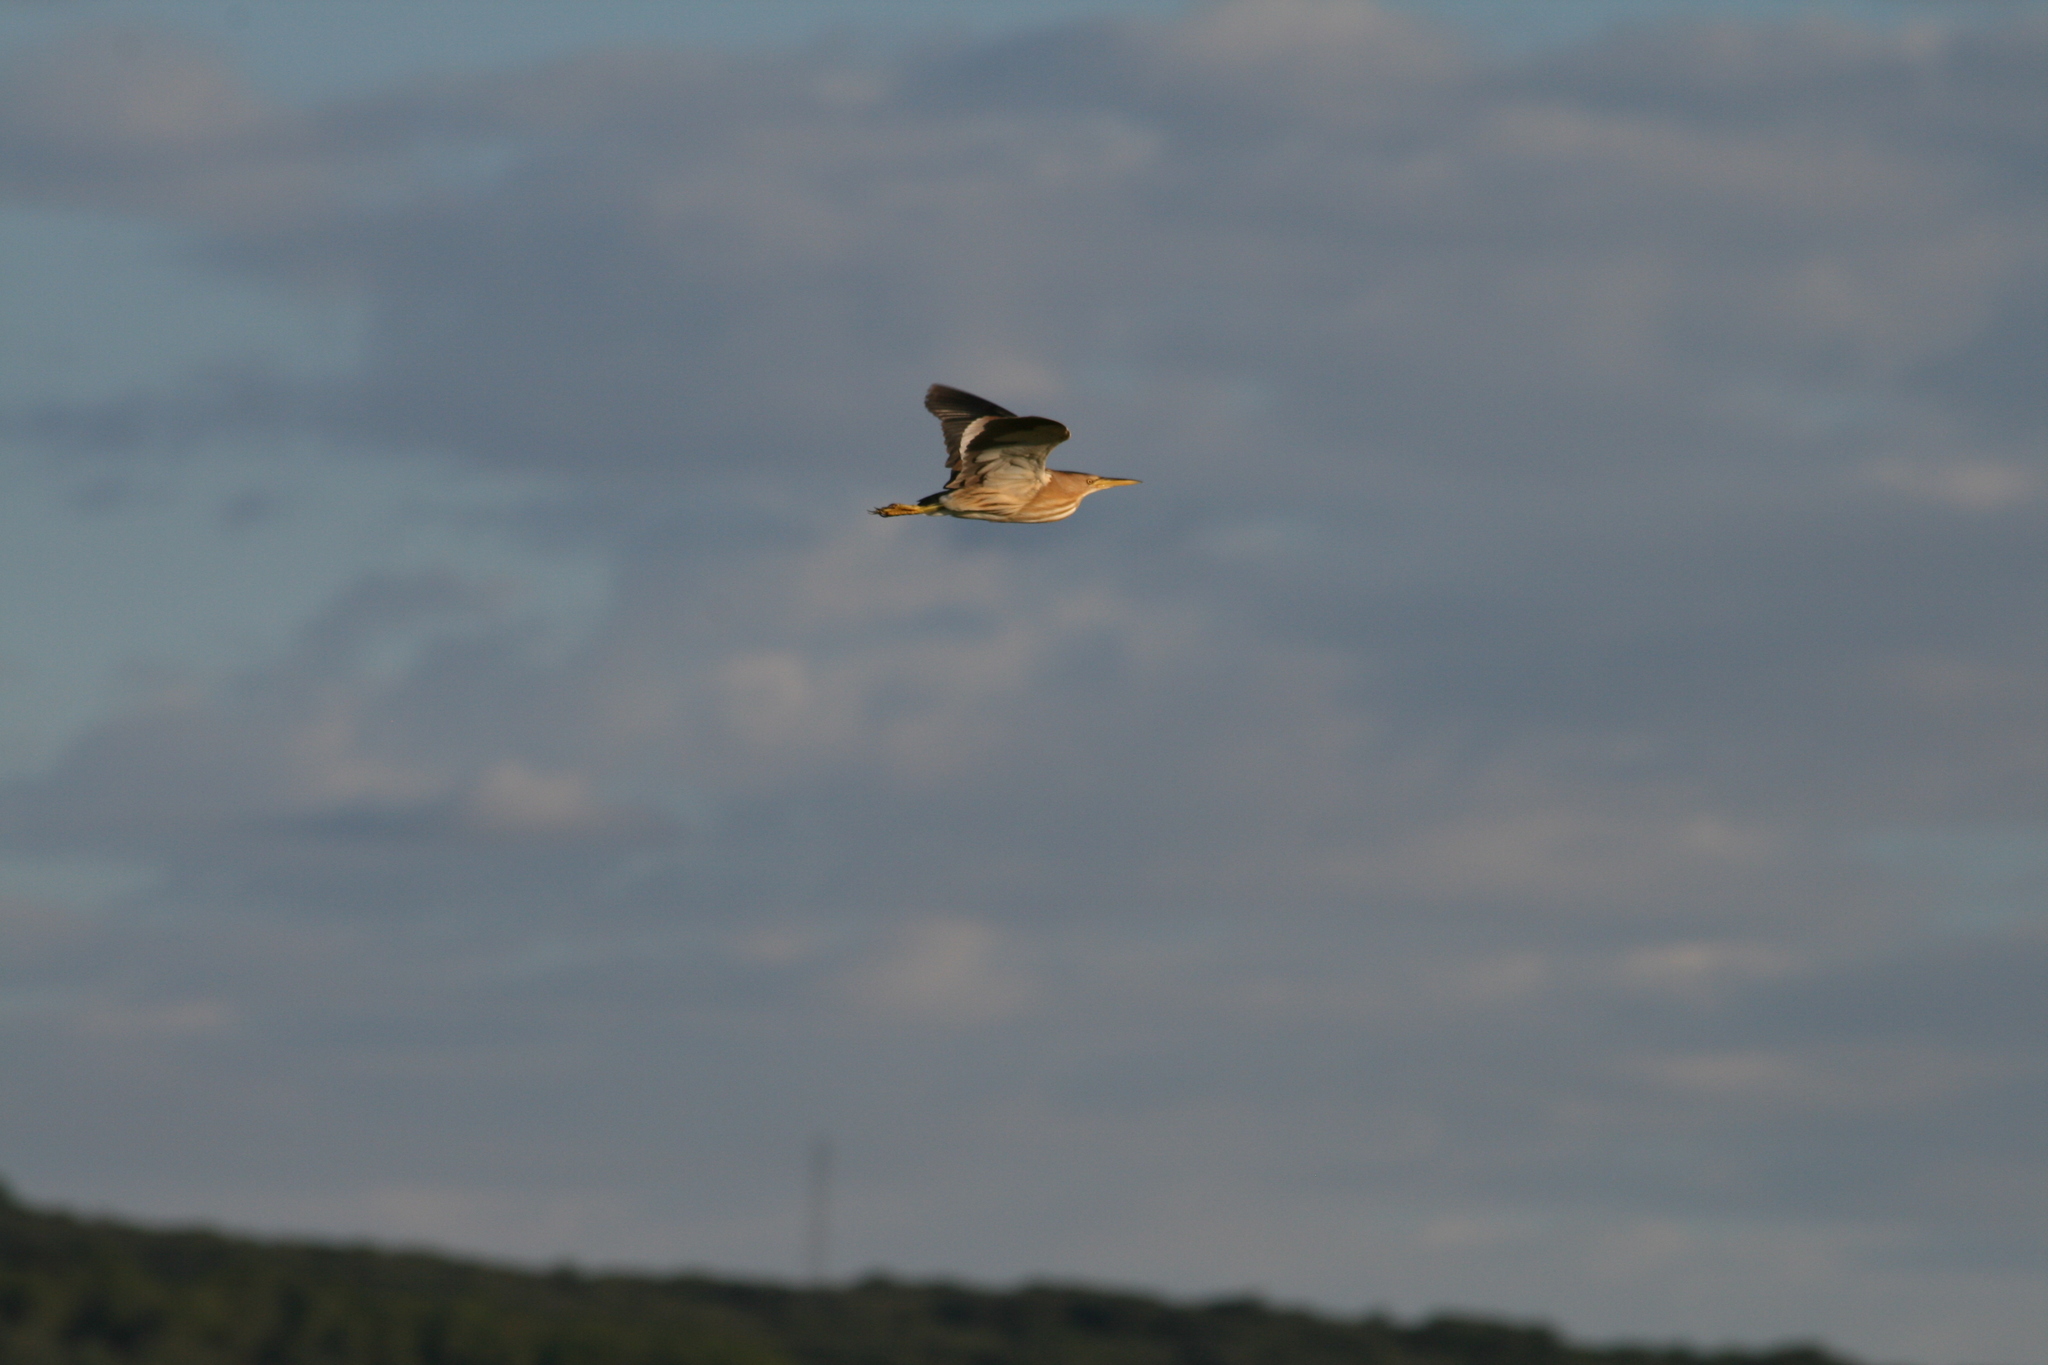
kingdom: Animalia
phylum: Chordata
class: Aves
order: Pelecaniformes
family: Ardeidae
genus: Ixobrychus
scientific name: Ixobrychus minutus
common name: Little bittern
